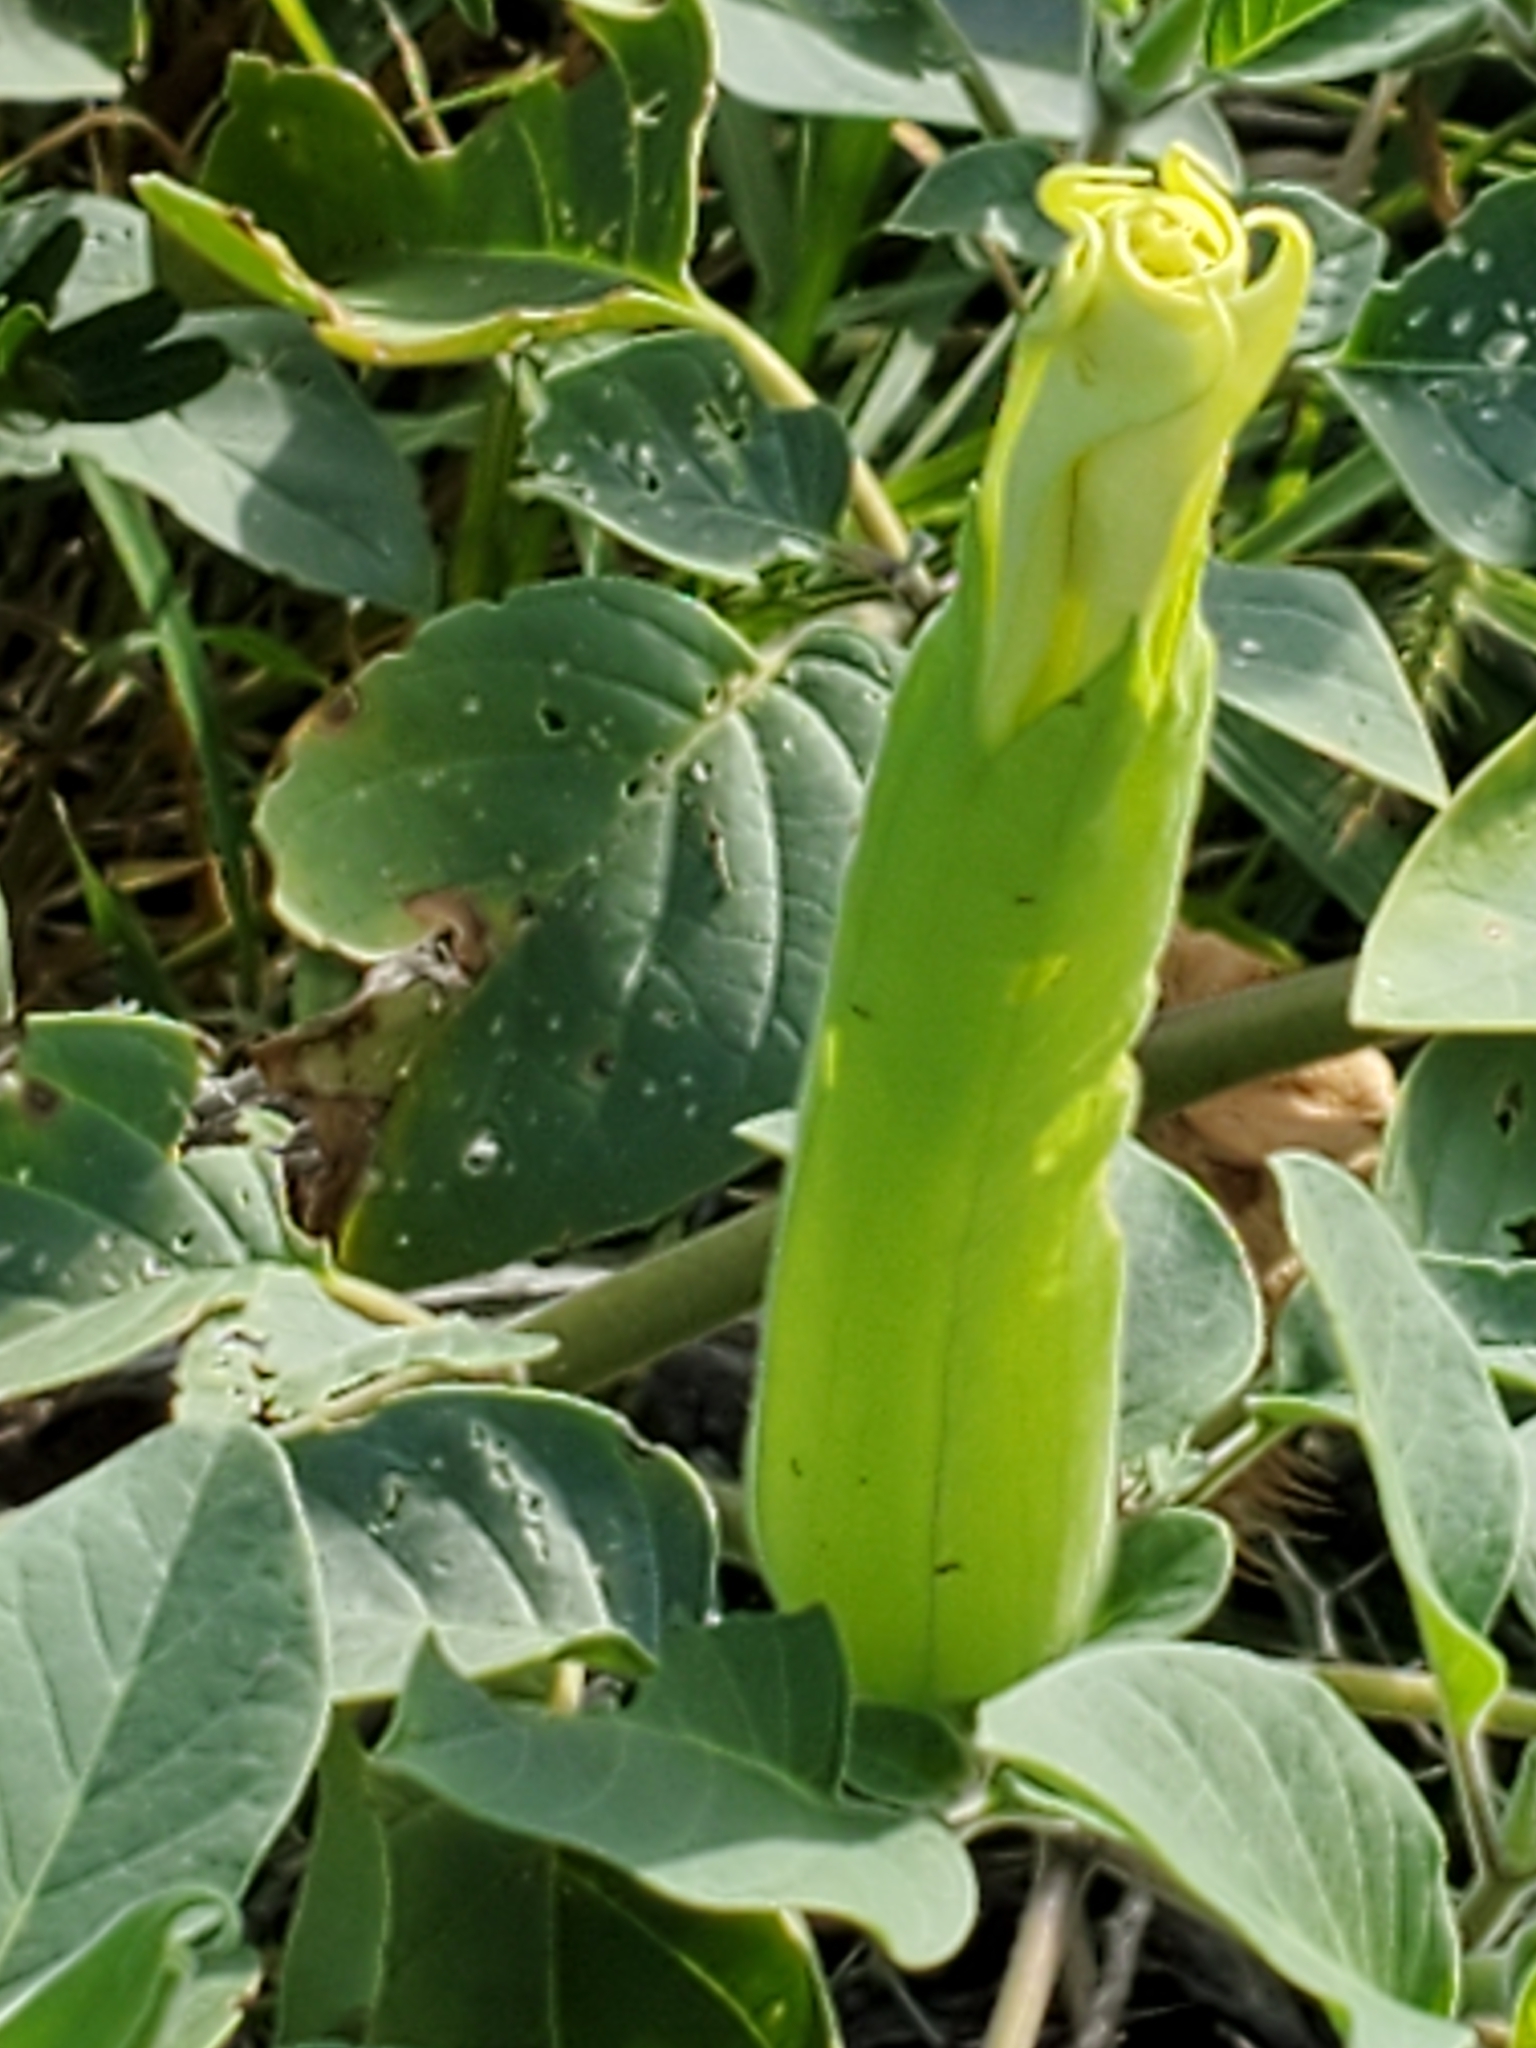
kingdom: Plantae
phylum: Tracheophyta
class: Magnoliopsida
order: Solanales
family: Solanaceae
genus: Datura
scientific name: Datura innoxia
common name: Downy thorn-apple
